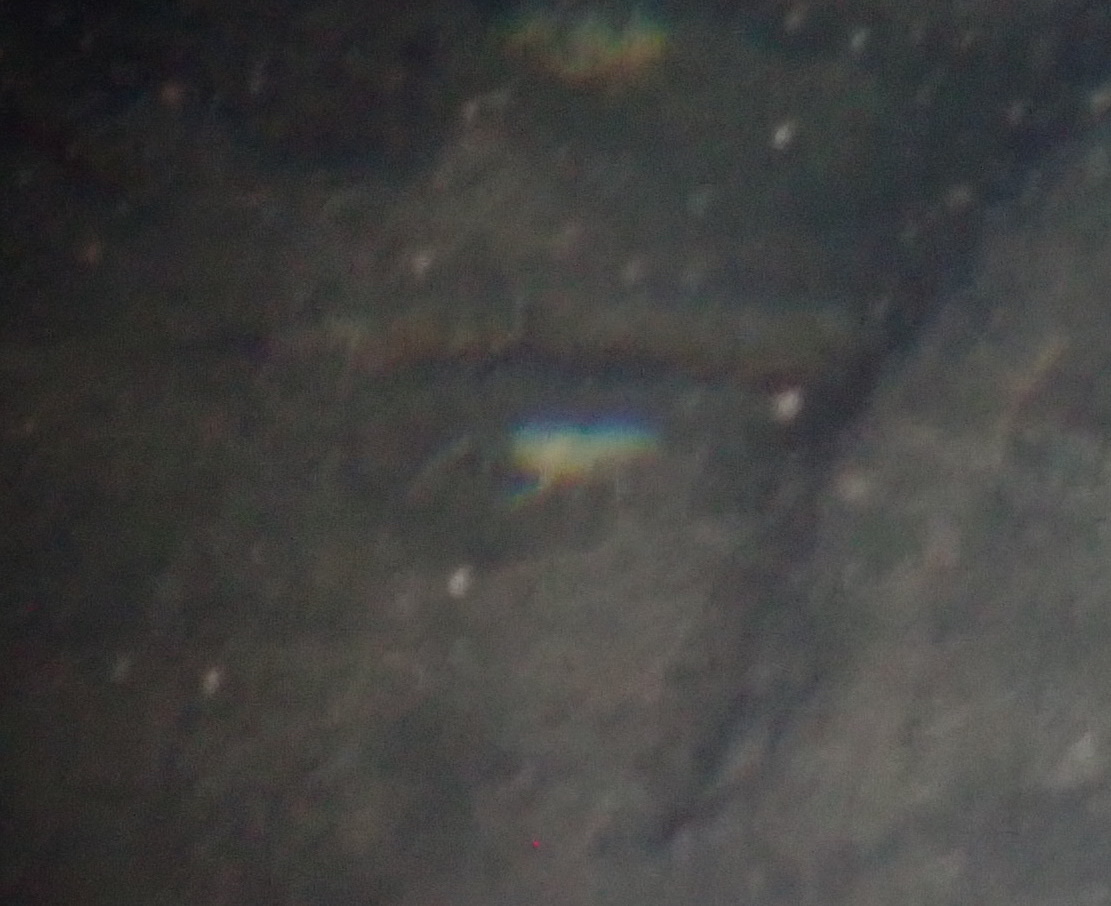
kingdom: Animalia
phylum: Arthropoda
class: Malacostraca
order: Decapoda
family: Cambaridae
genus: Procambarus
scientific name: Procambarus orcinus
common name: Woodville cave crayfish
